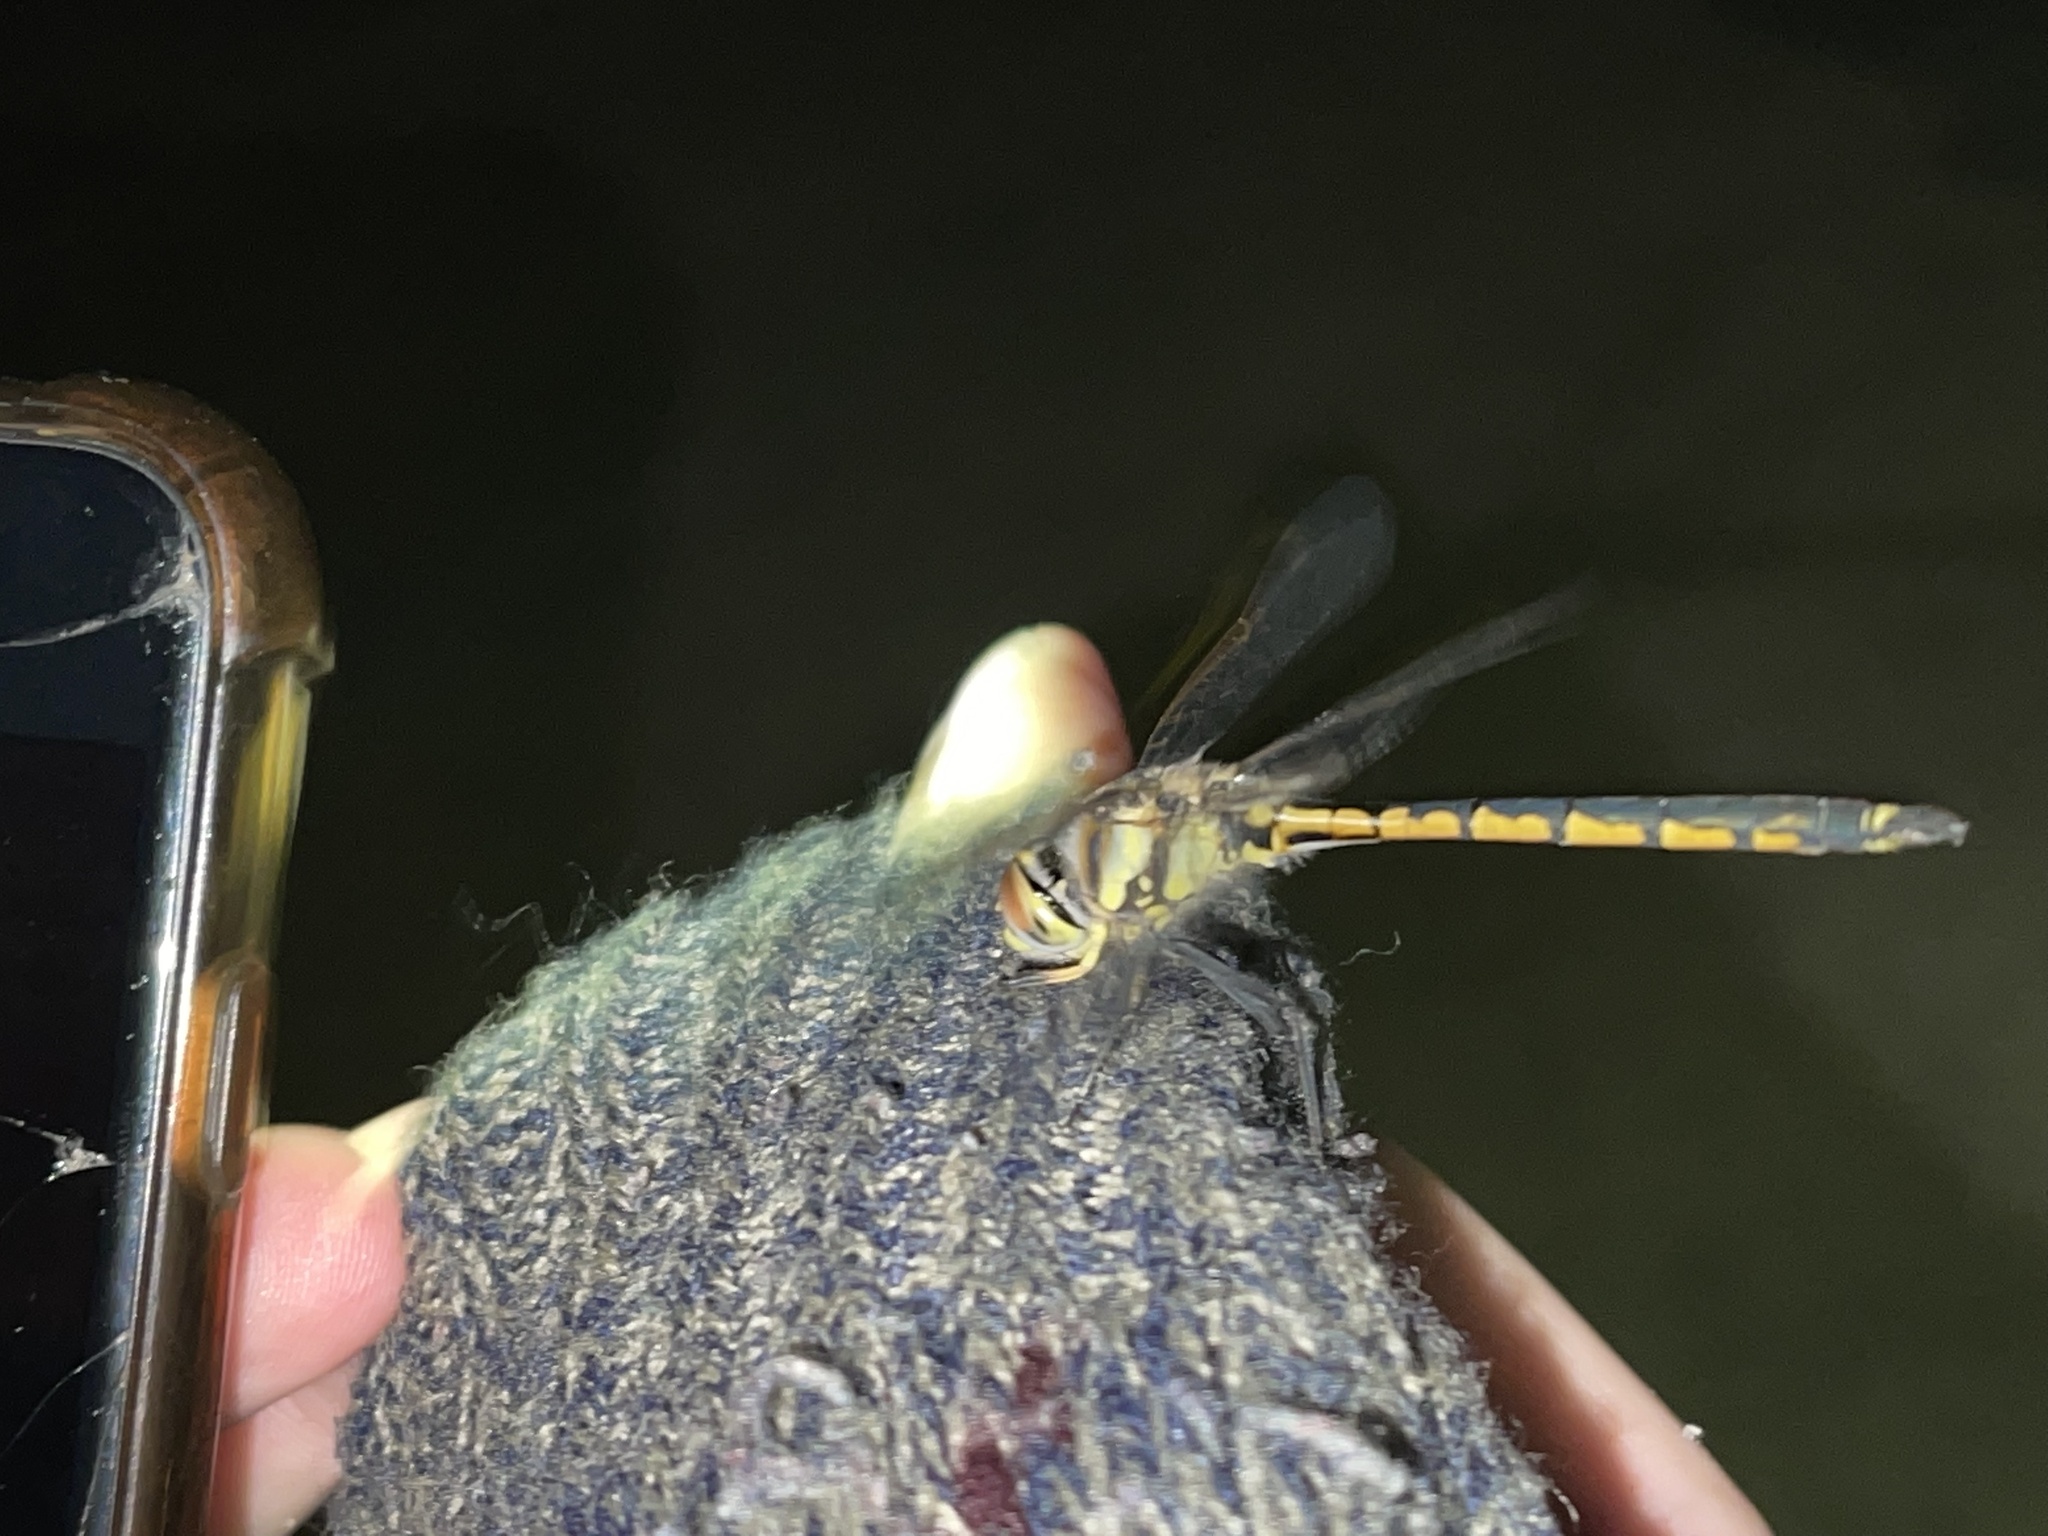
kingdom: Animalia
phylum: Arthropoda
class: Insecta
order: Odonata
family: Corduliidae
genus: Hemicordulia
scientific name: Hemicordulia tau
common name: Tau emerald
